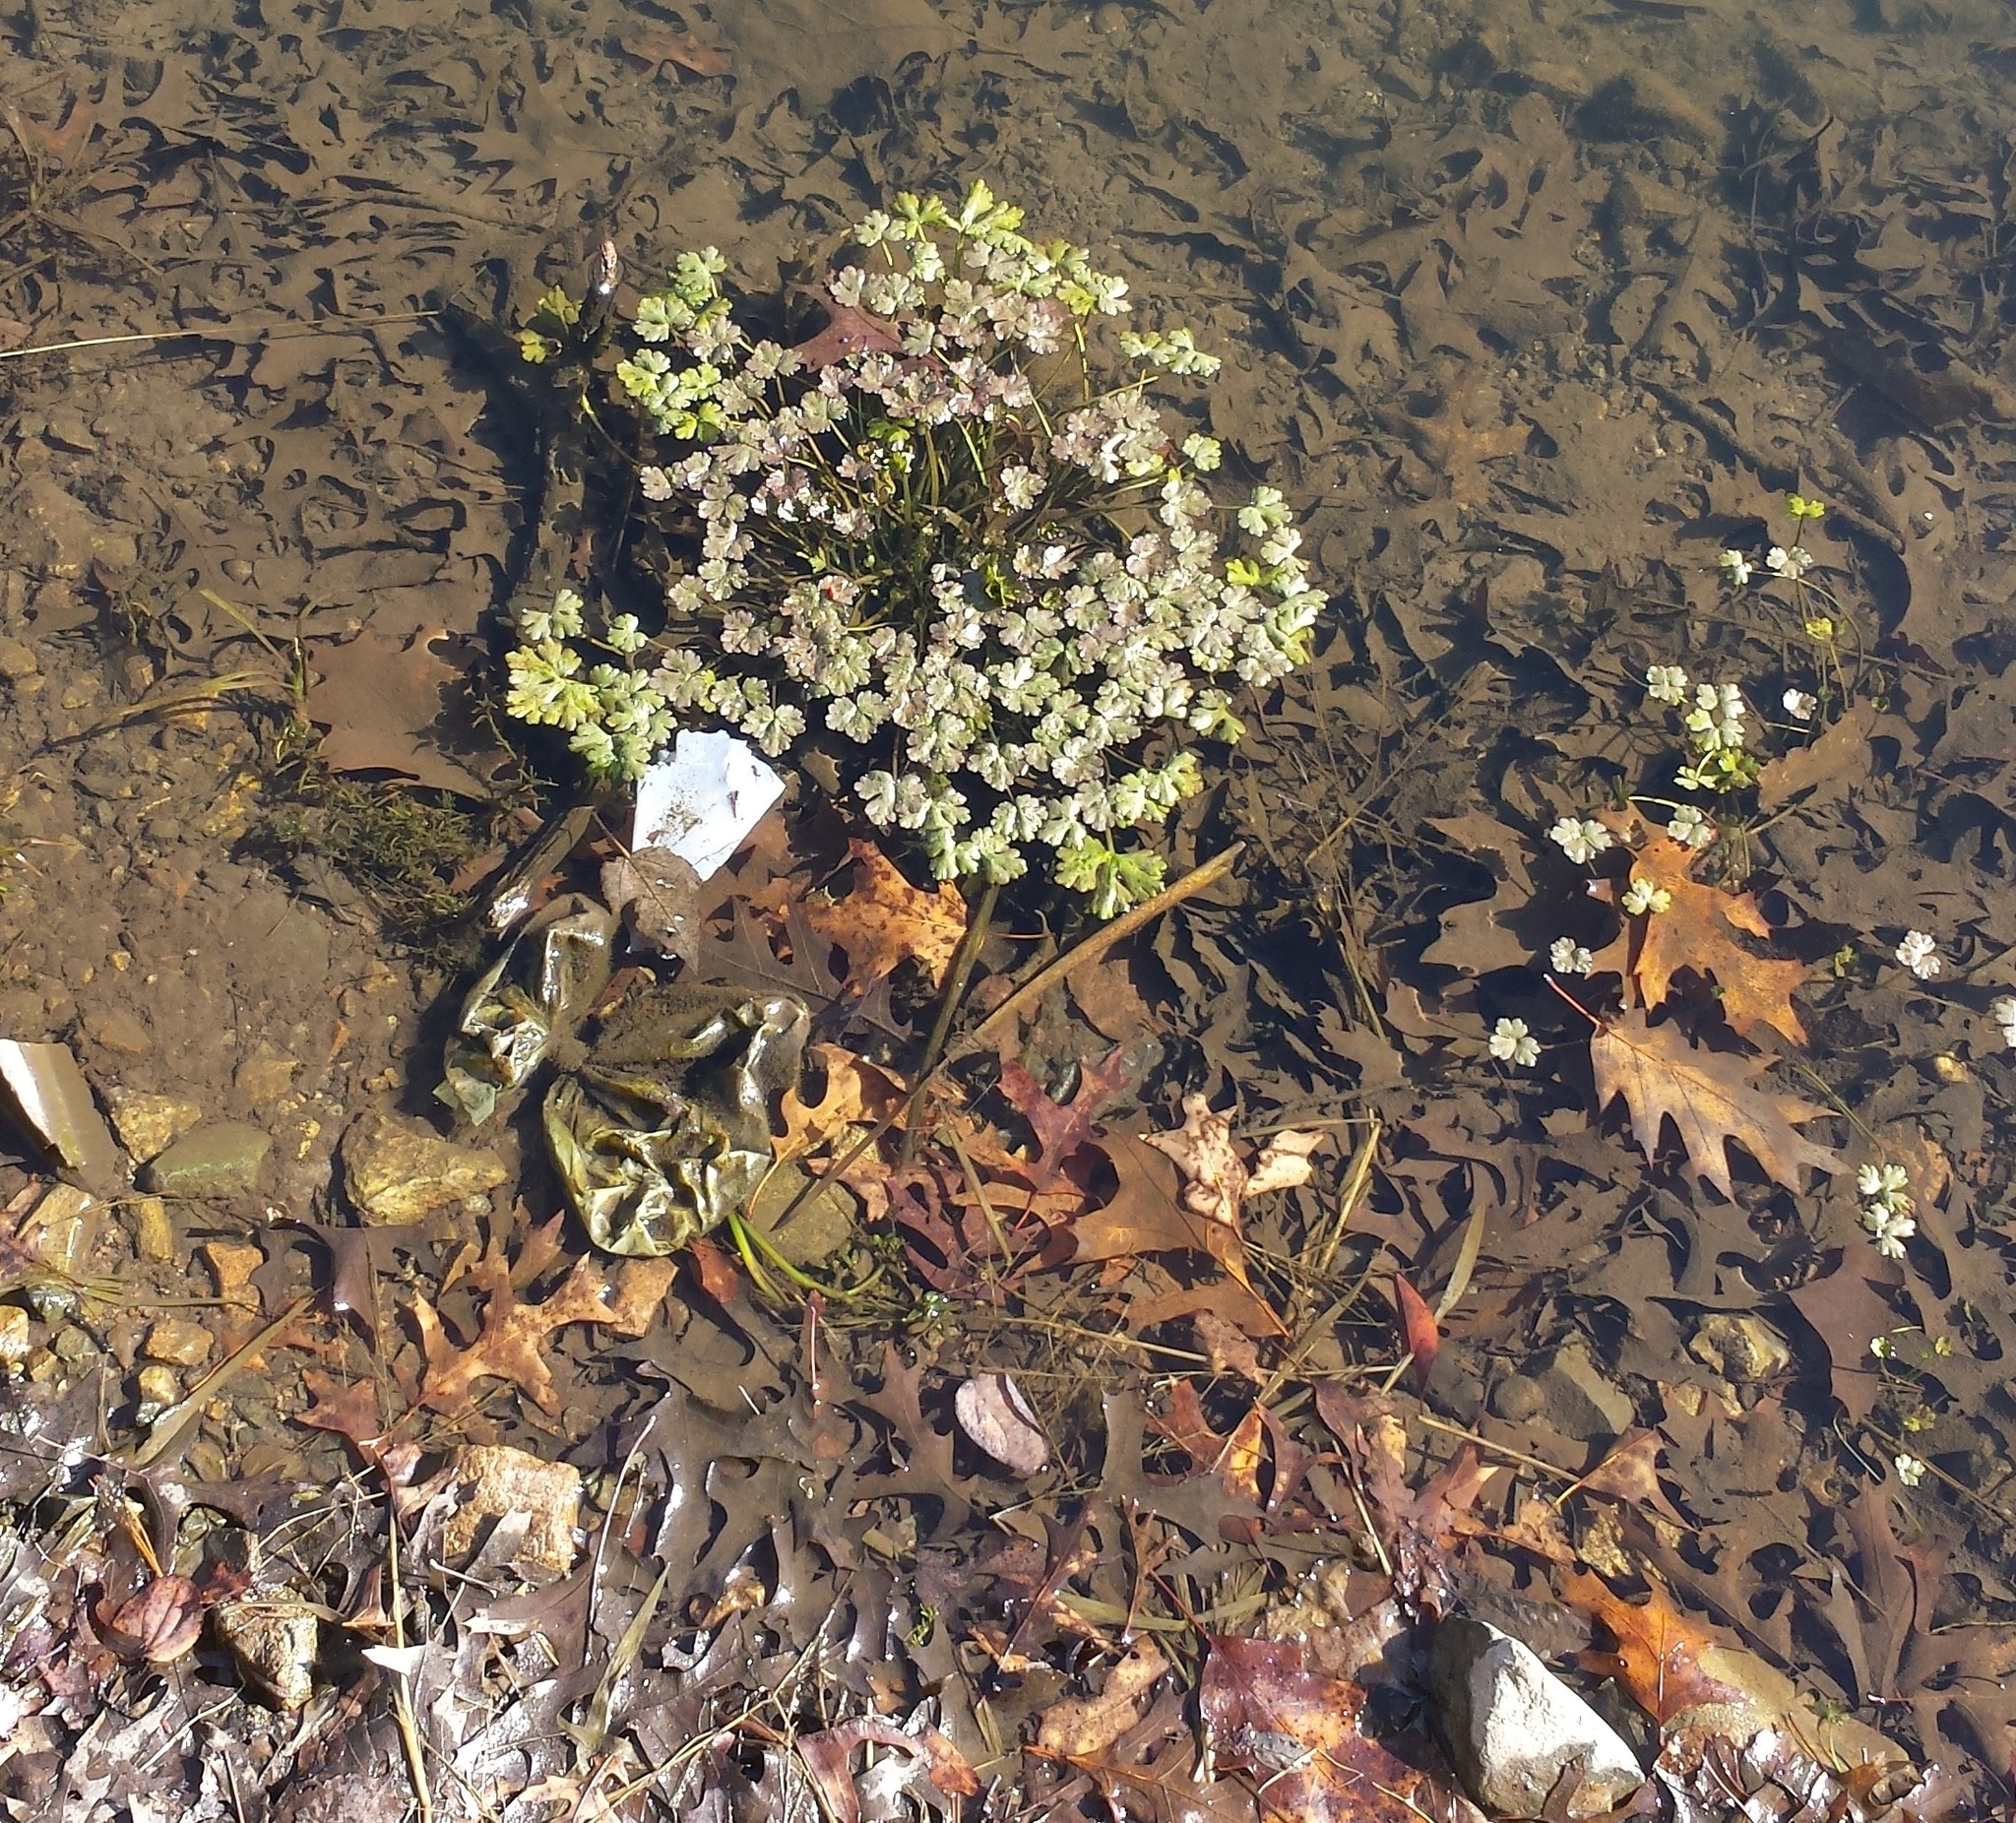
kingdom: Plantae
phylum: Tracheophyta
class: Magnoliopsida
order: Ranunculales
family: Ranunculaceae
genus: Ranunculus
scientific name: Ranunculus sceleratus
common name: Celery-leaved buttercup
